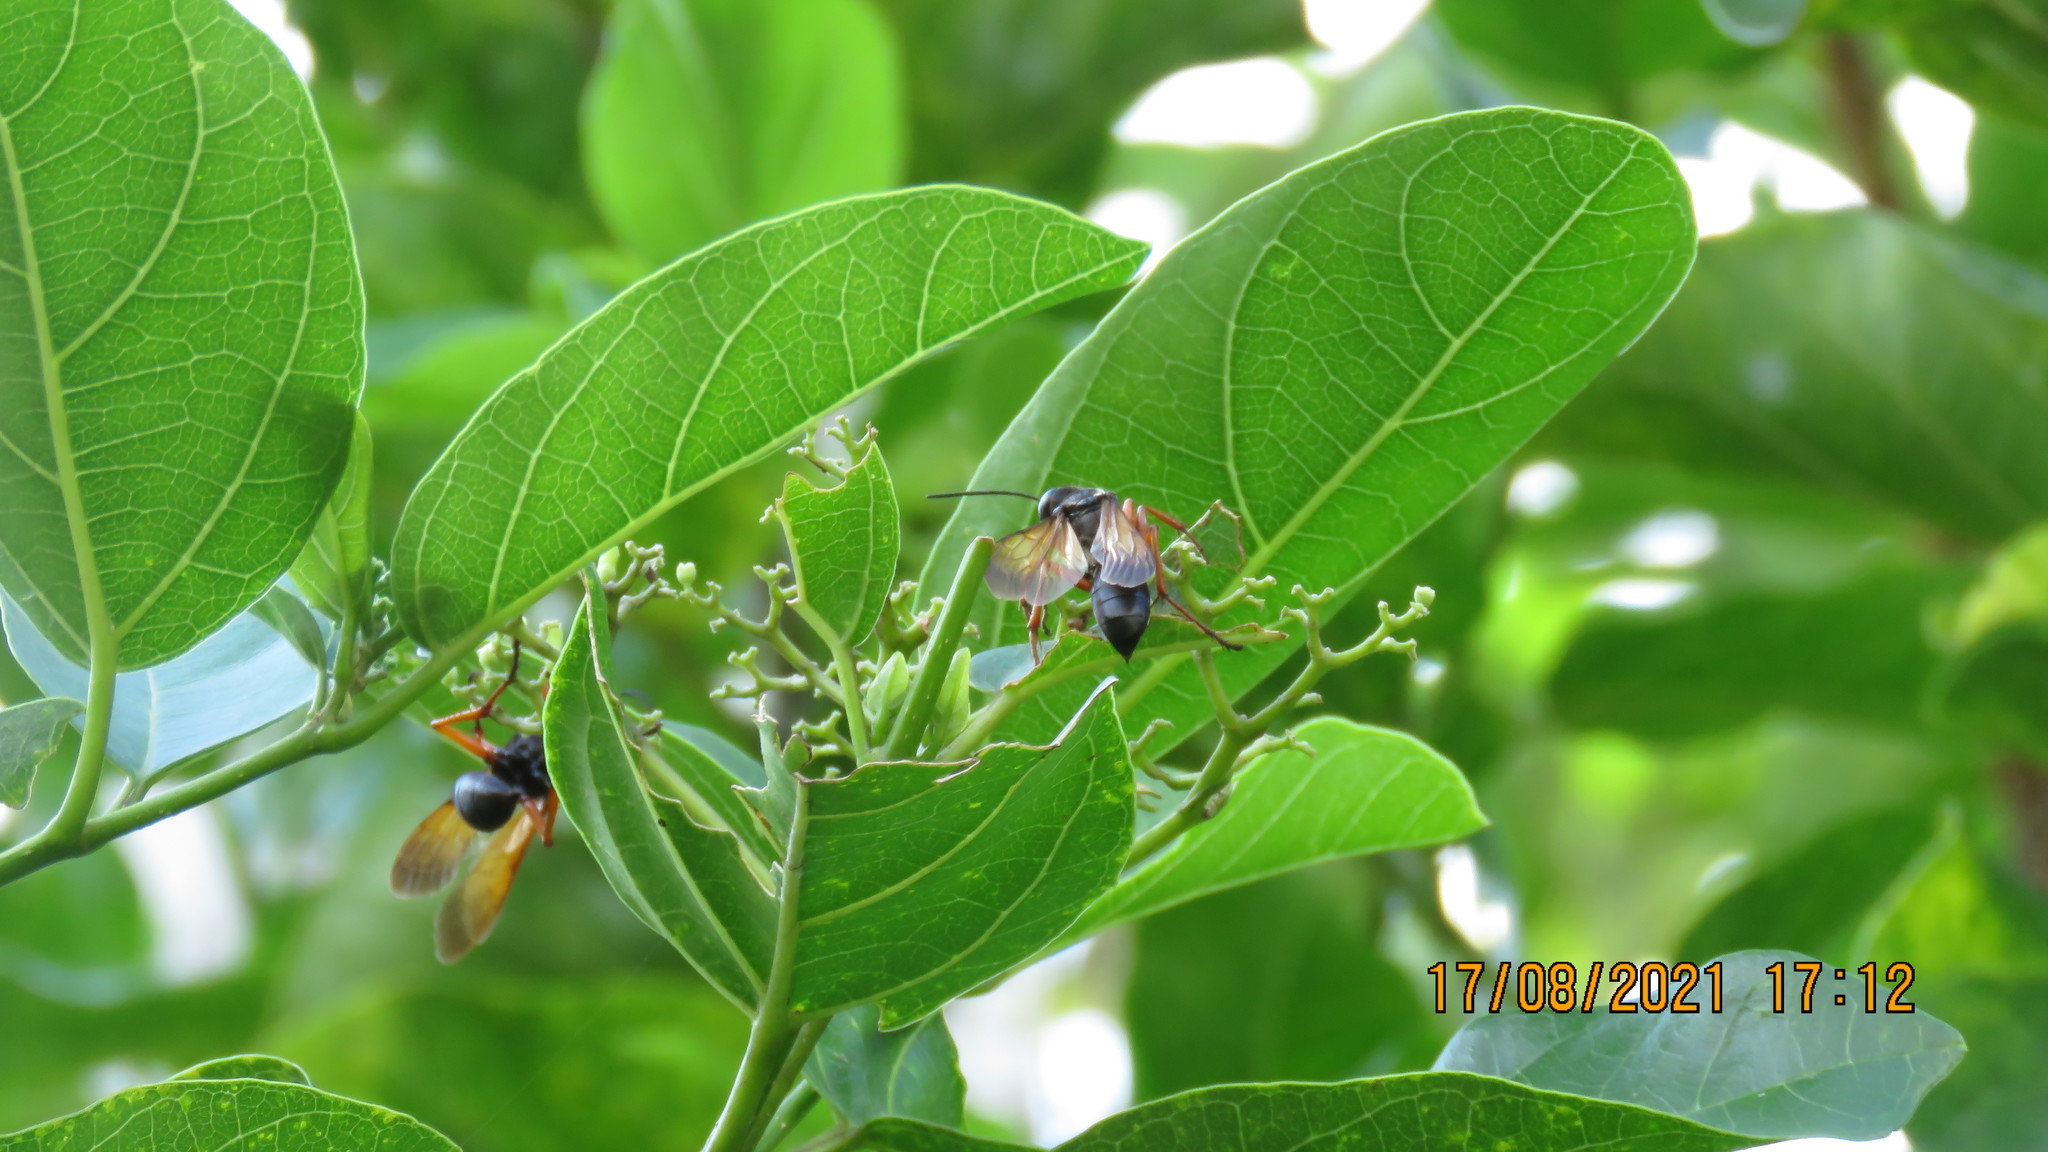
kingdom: Animalia
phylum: Arthropoda
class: Insecta
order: Hymenoptera
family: Sphecidae
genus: Sphex
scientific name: Sphex subtruncatus
